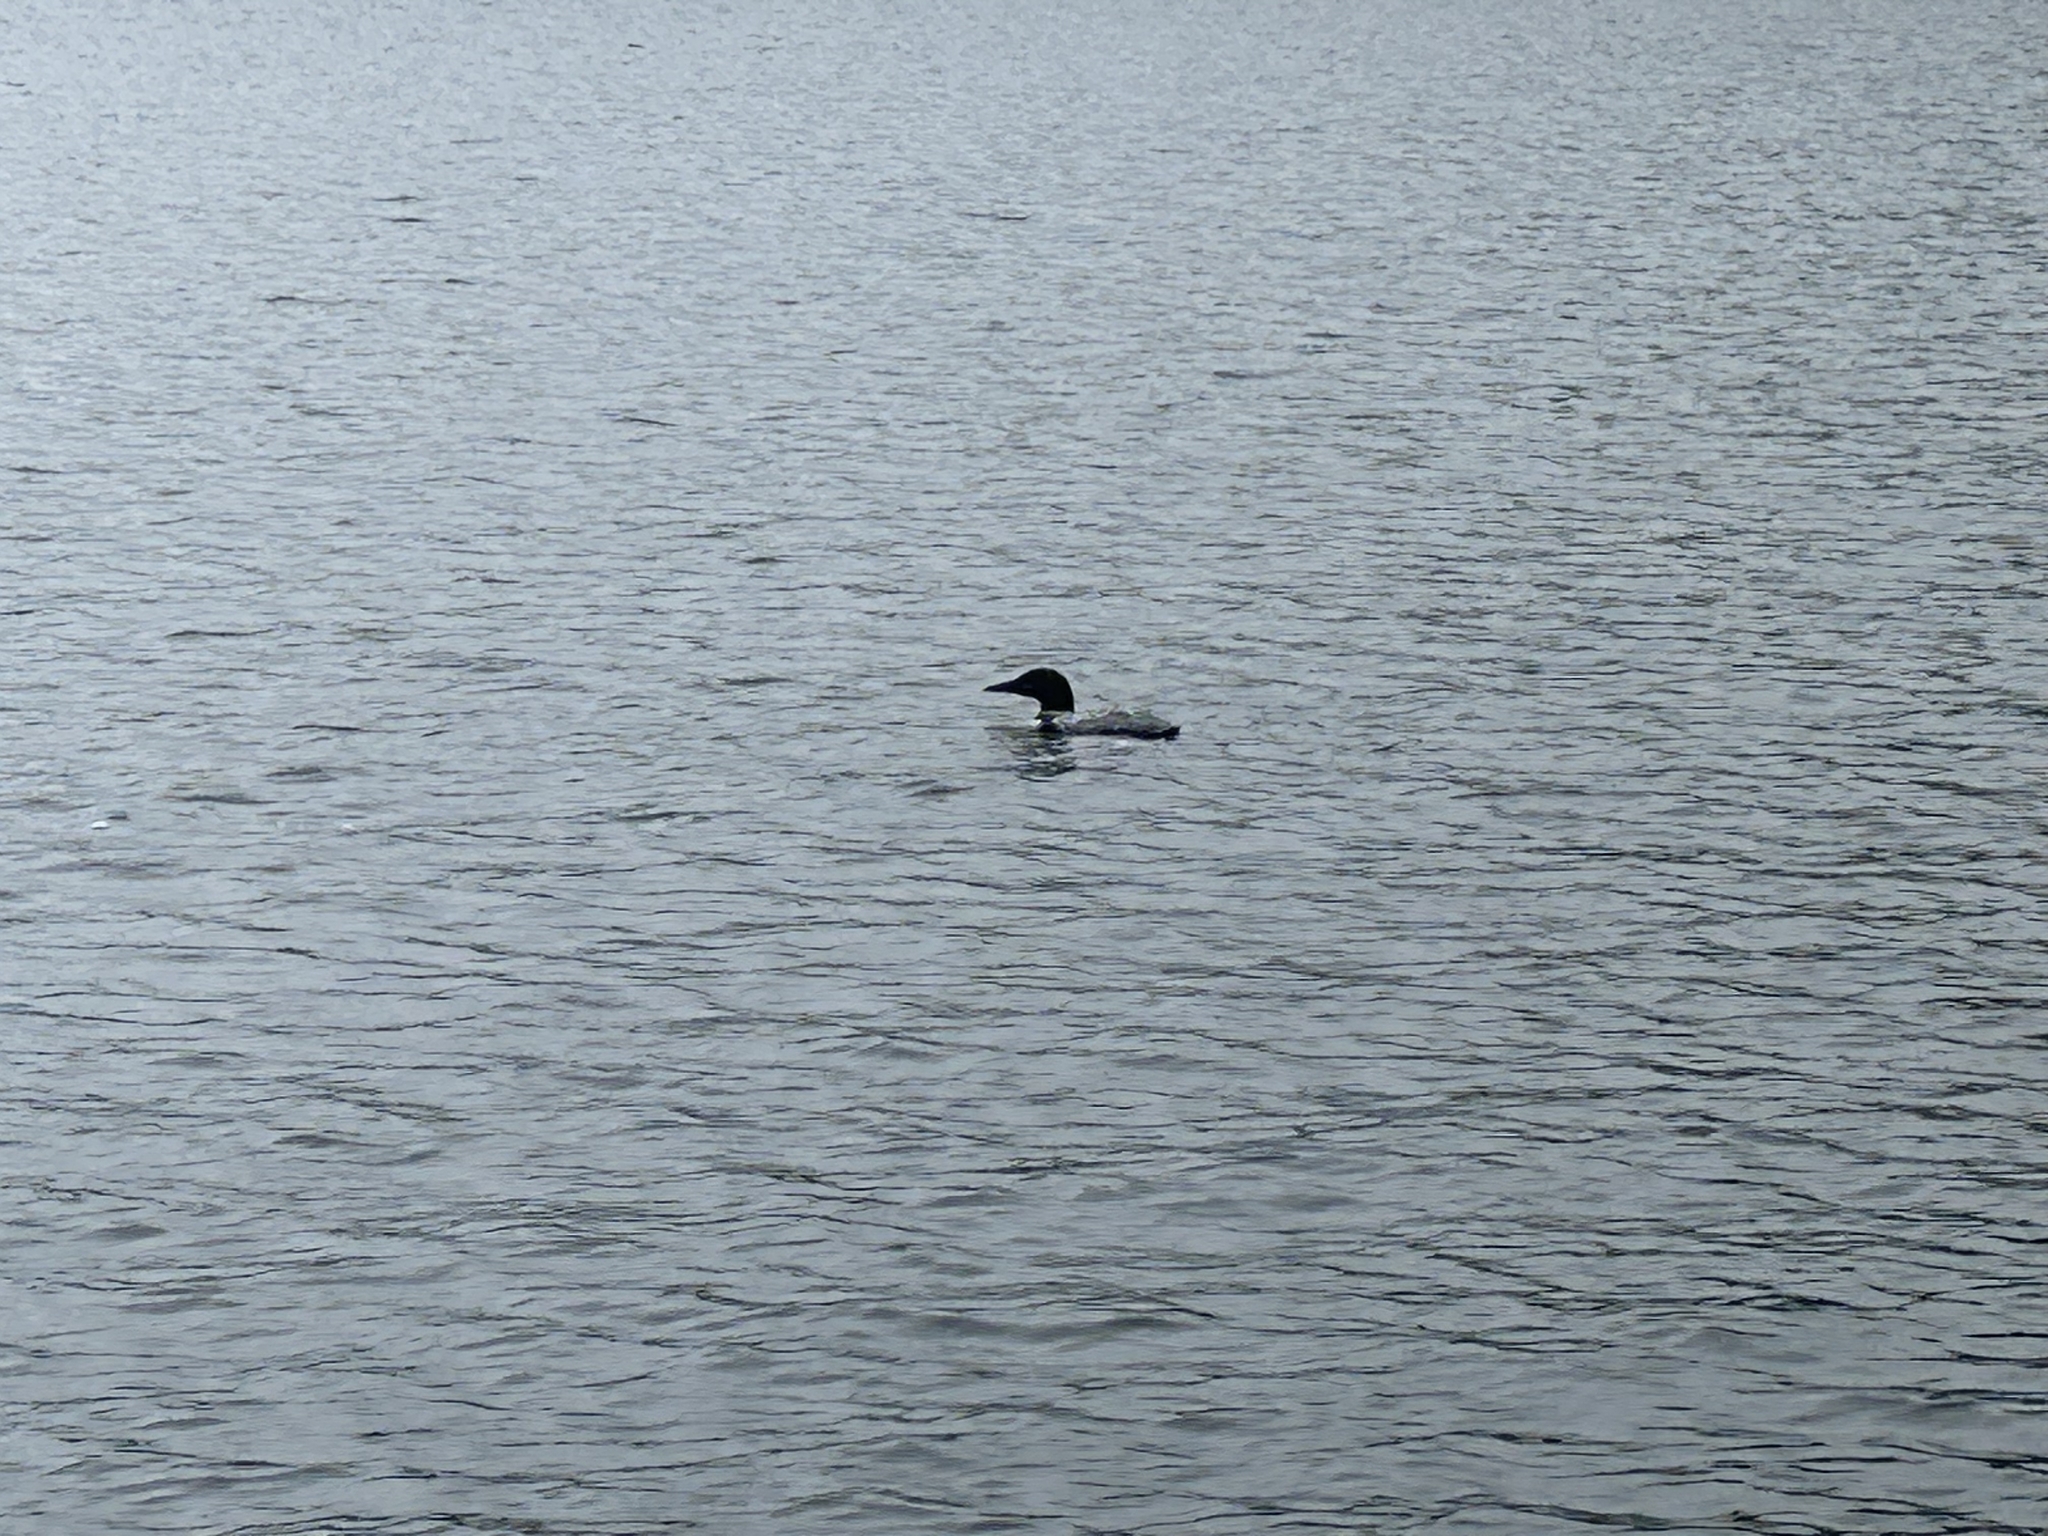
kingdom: Animalia
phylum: Chordata
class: Aves
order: Gaviiformes
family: Gaviidae
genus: Gavia
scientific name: Gavia immer
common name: Common loon
